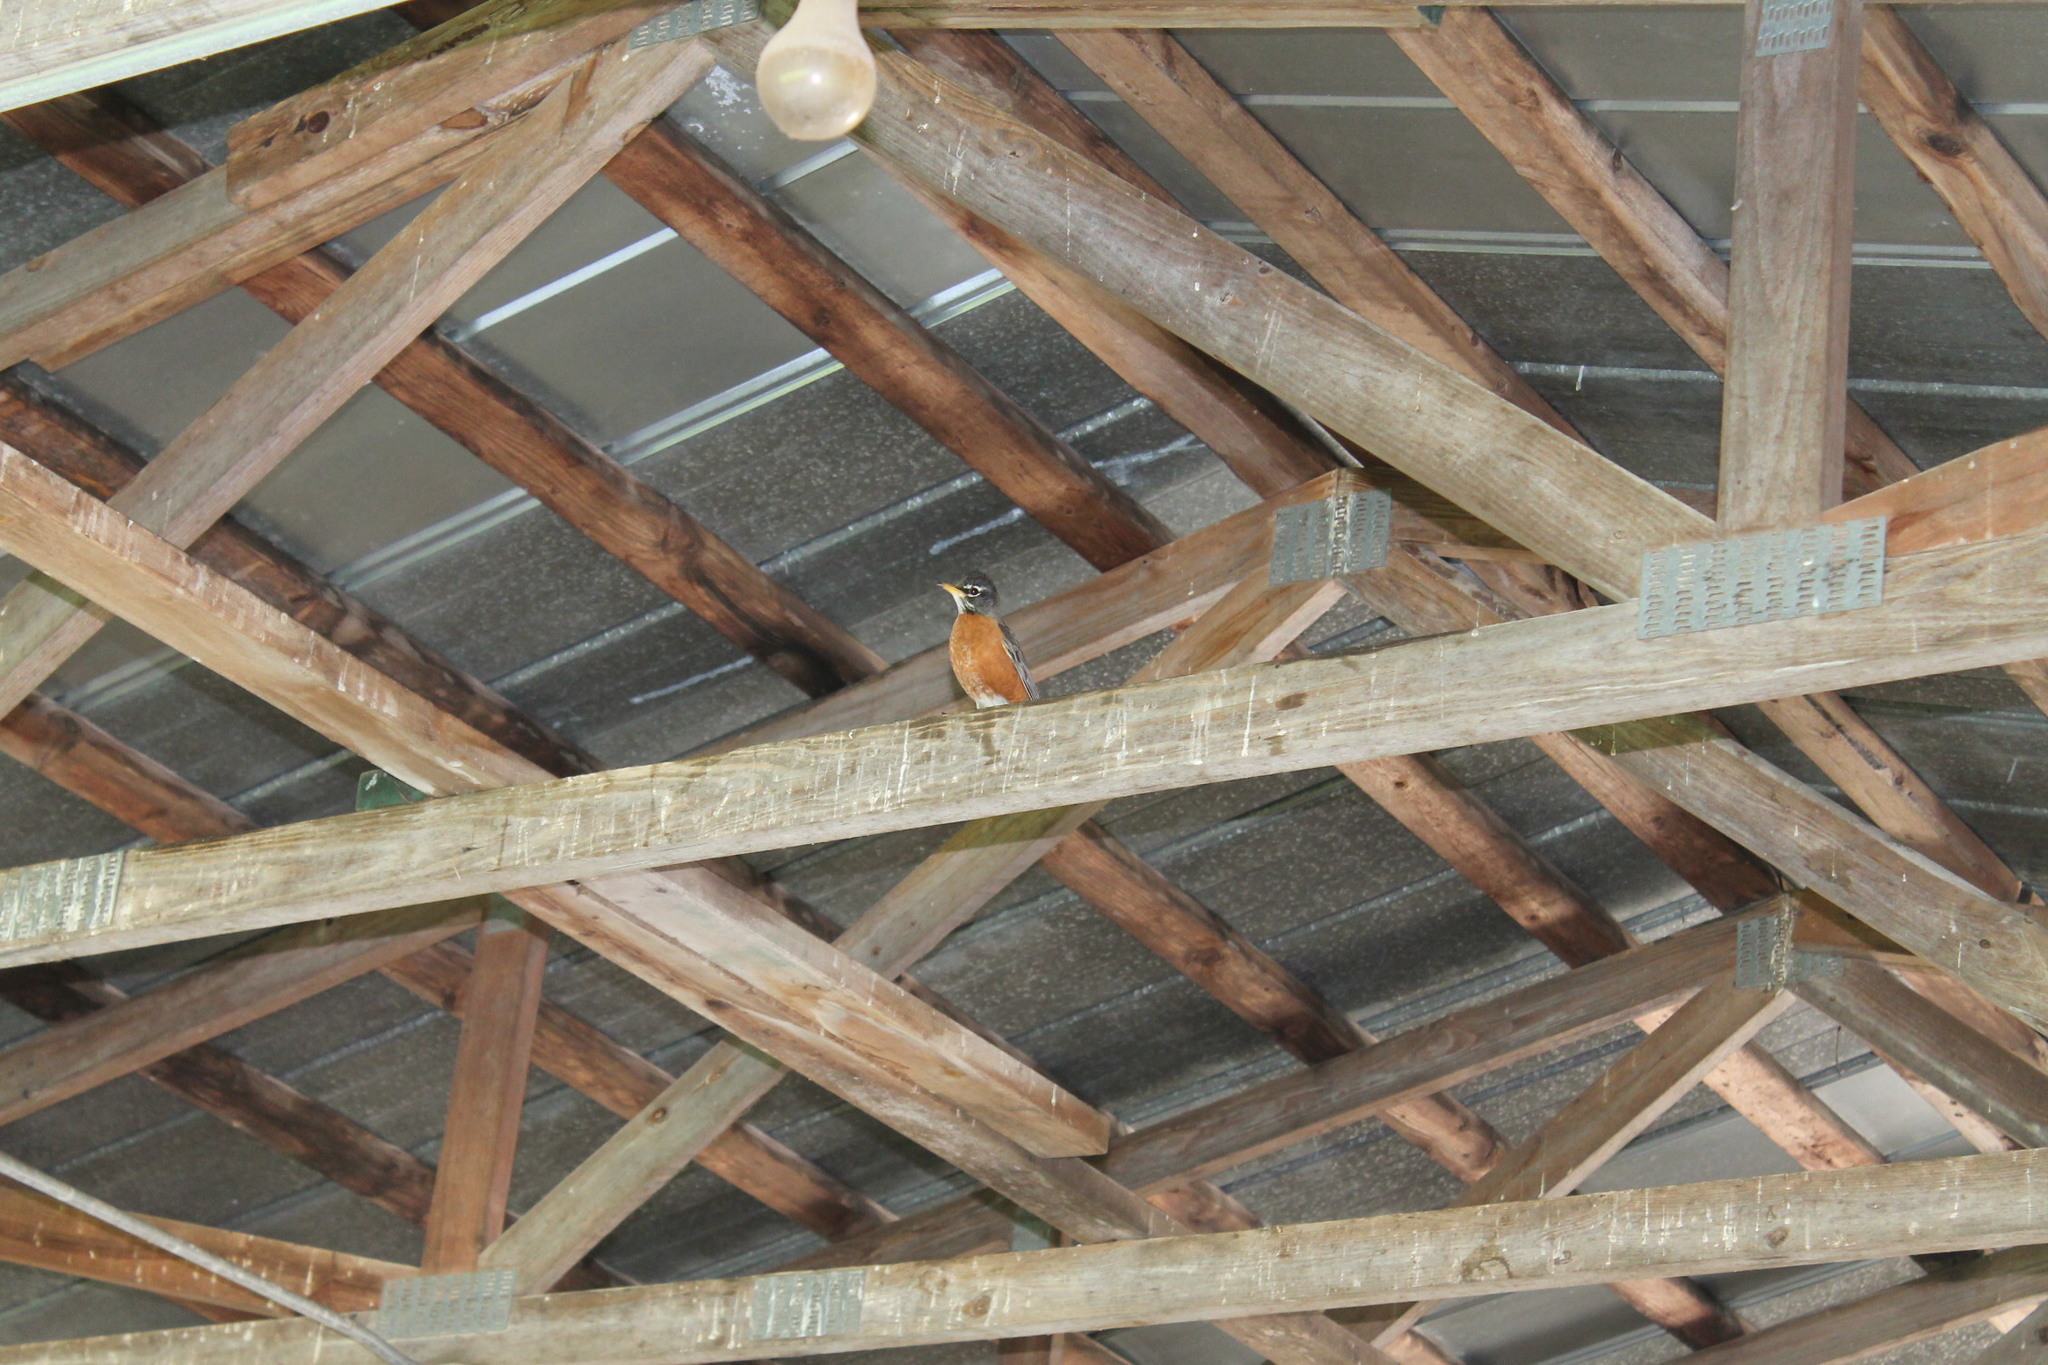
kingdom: Animalia
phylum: Chordata
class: Aves
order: Passeriformes
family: Turdidae
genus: Turdus
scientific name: Turdus migratorius
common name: American robin
